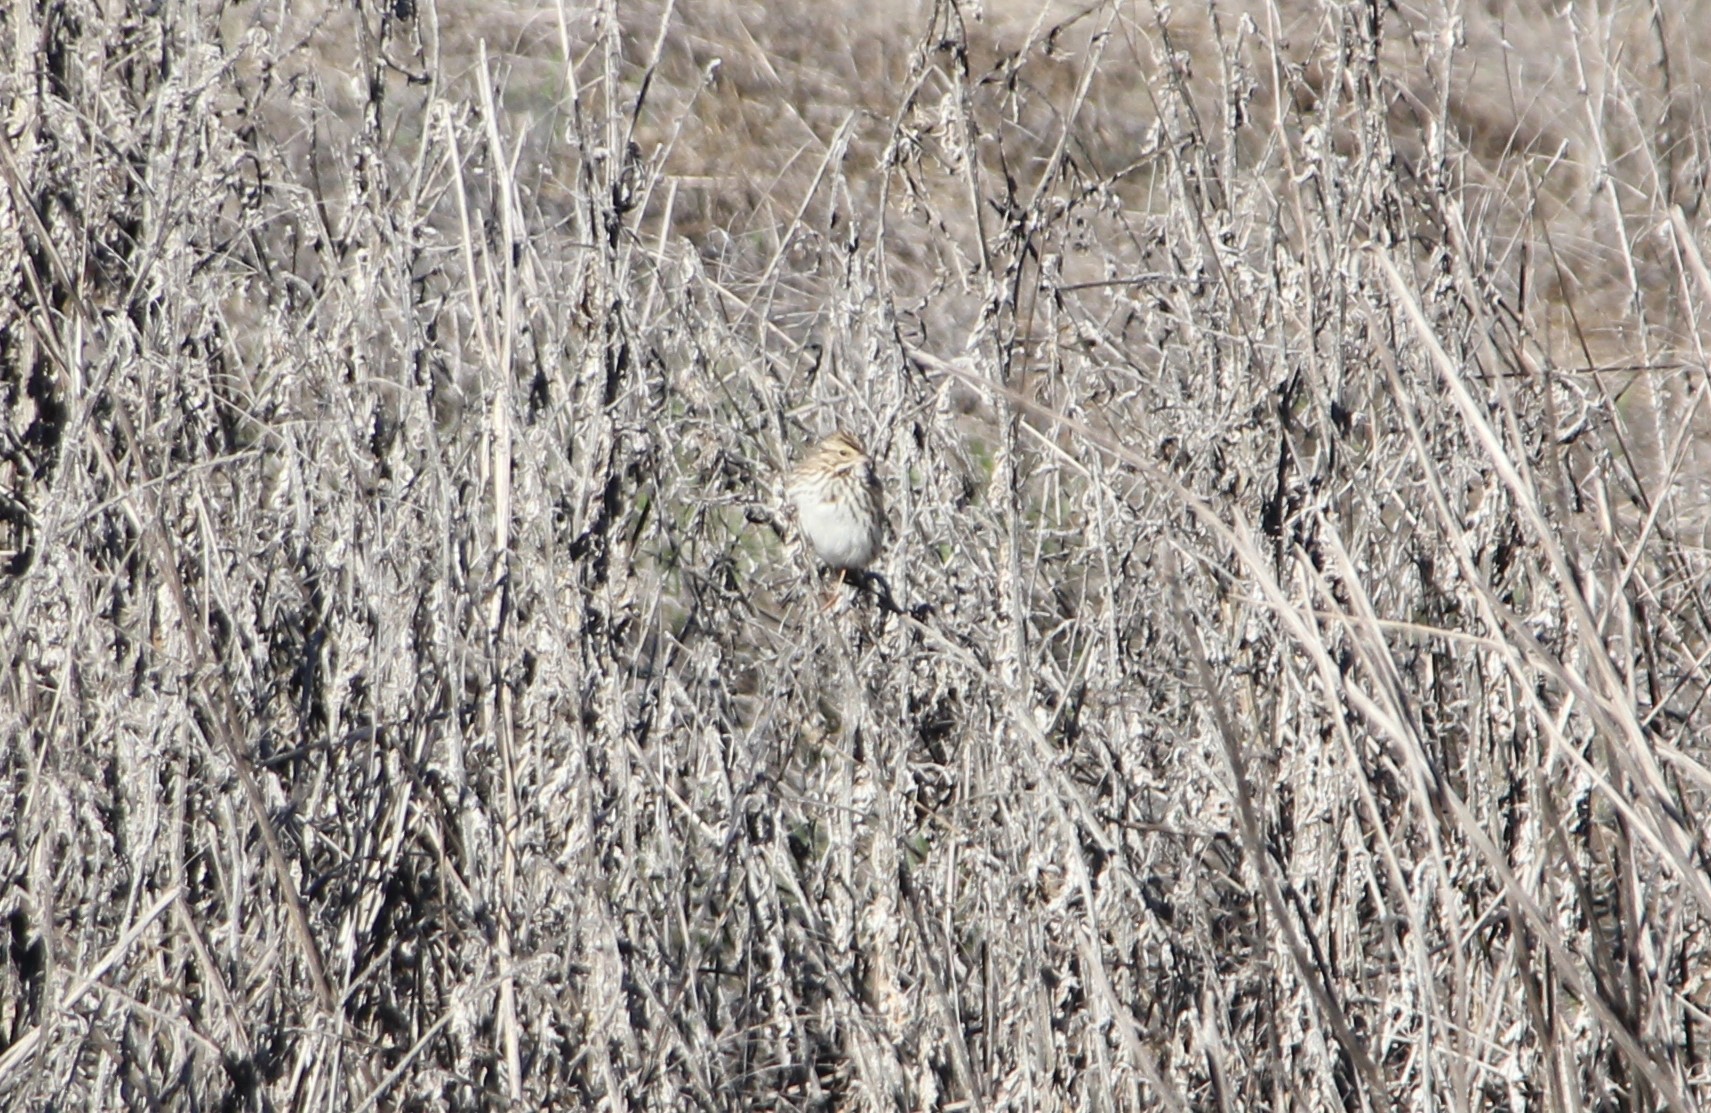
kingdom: Animalia
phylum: Chordata
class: Aves
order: Passeriformes
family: Passerellidae
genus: Passerculus
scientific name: Passerculus sandwichensis
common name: Savannah sparrow
